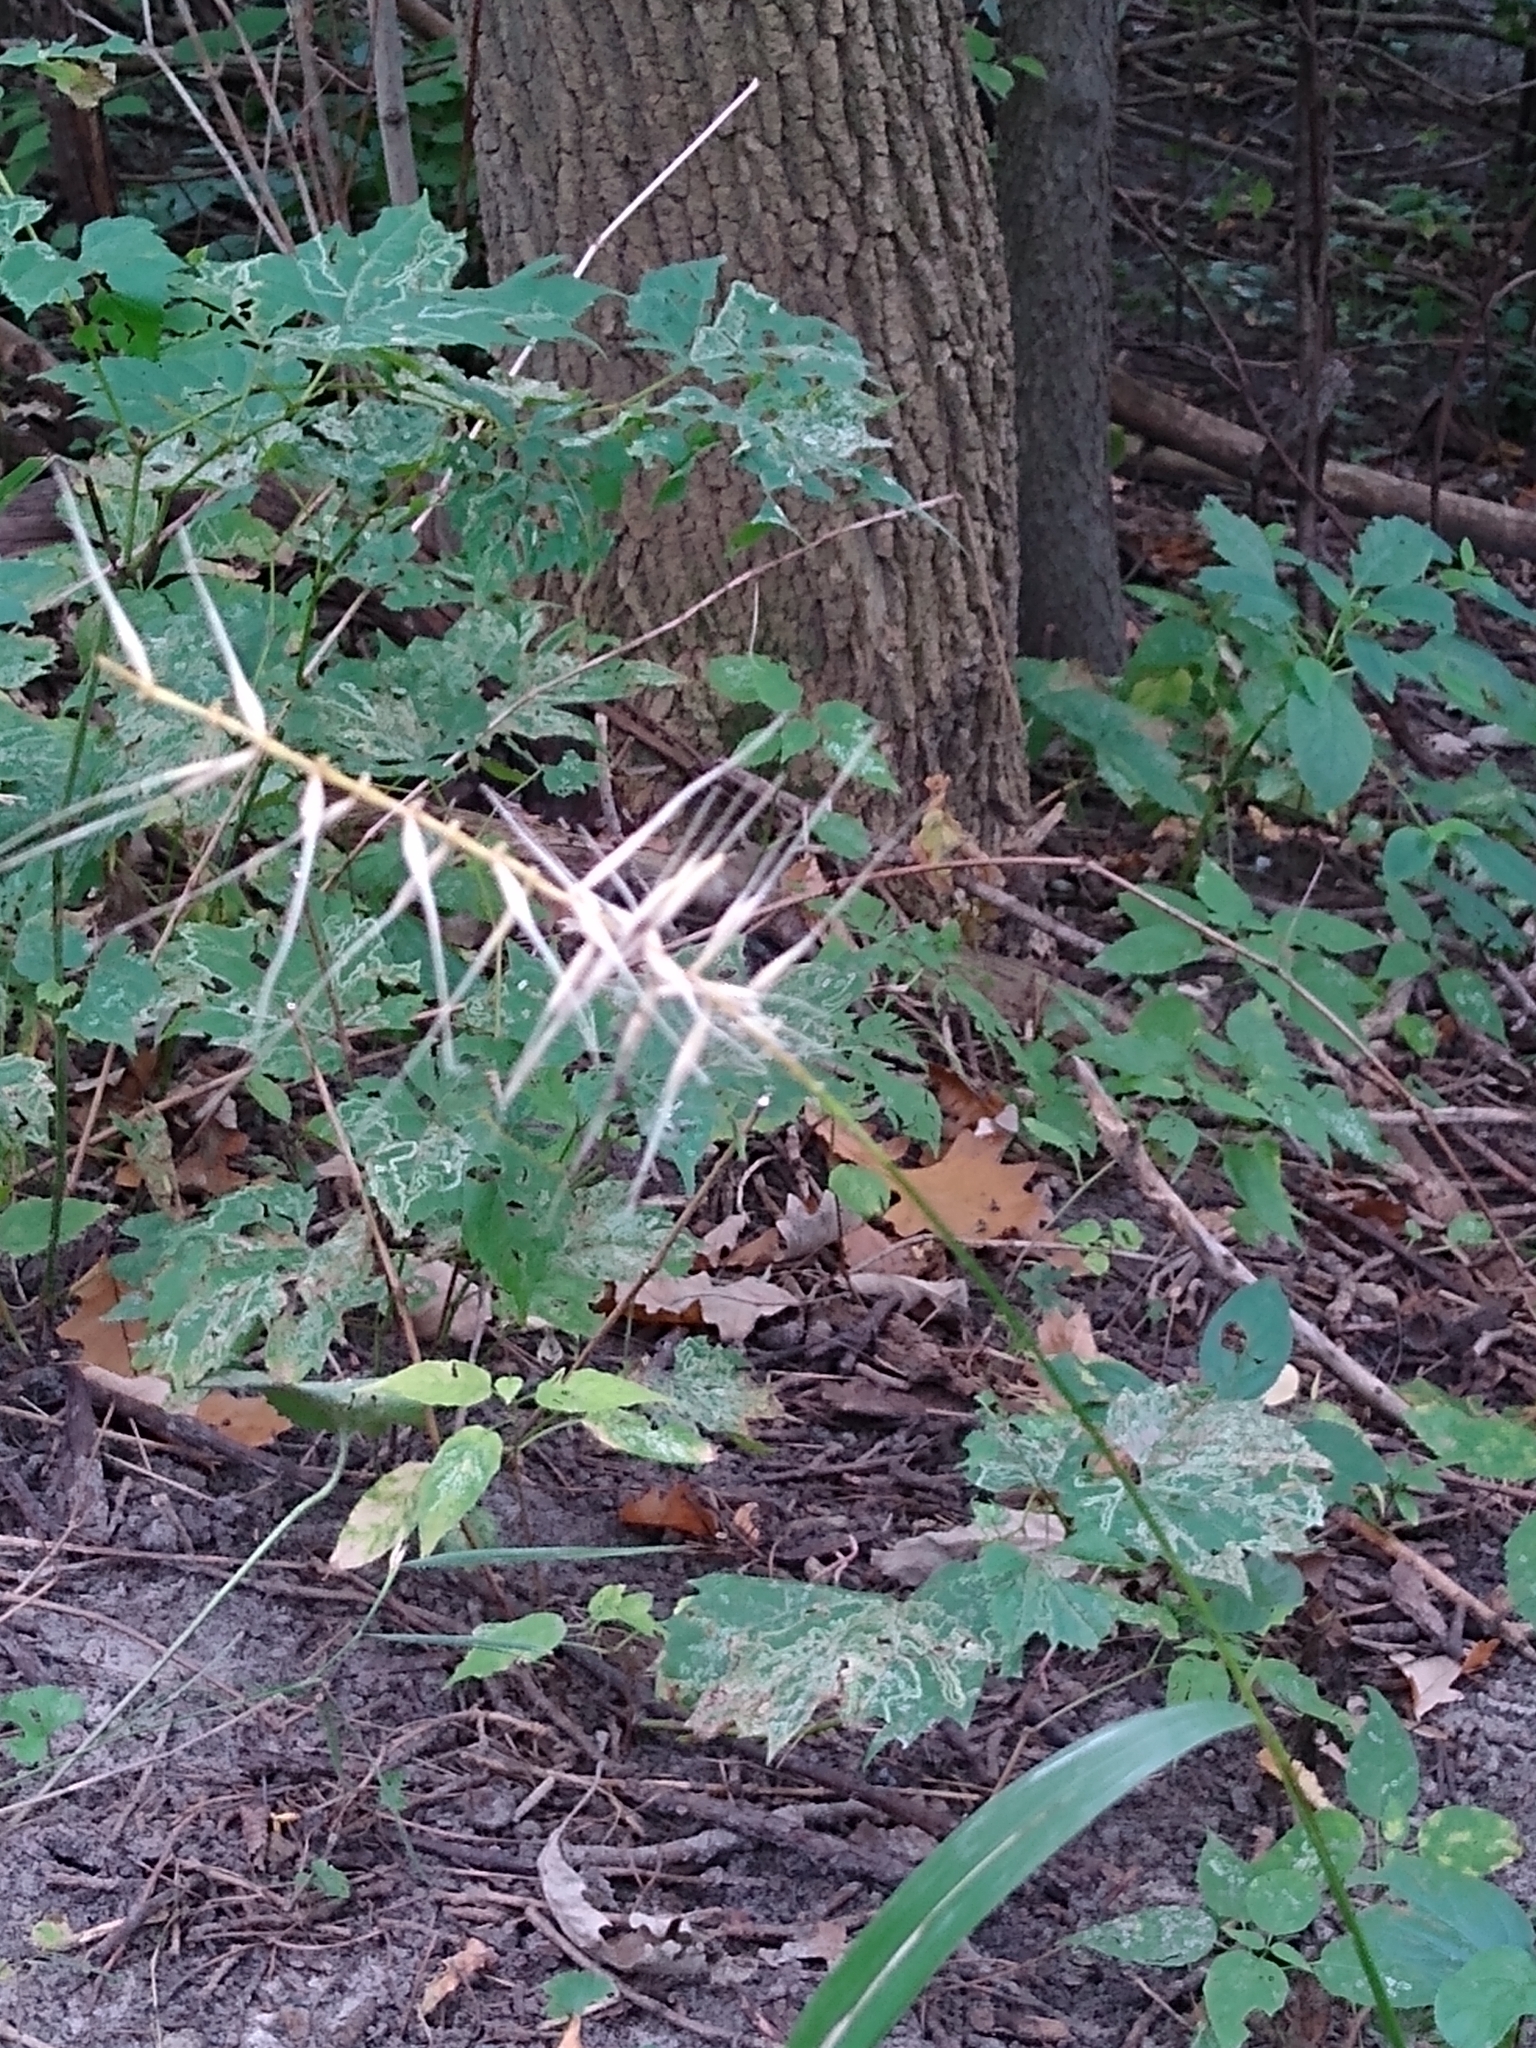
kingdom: Plantae
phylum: Tracheophyta
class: Liliopsida
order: Poales
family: Poaceae
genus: Elymus
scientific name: Elymus hystrix
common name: Bottlebrush grass
